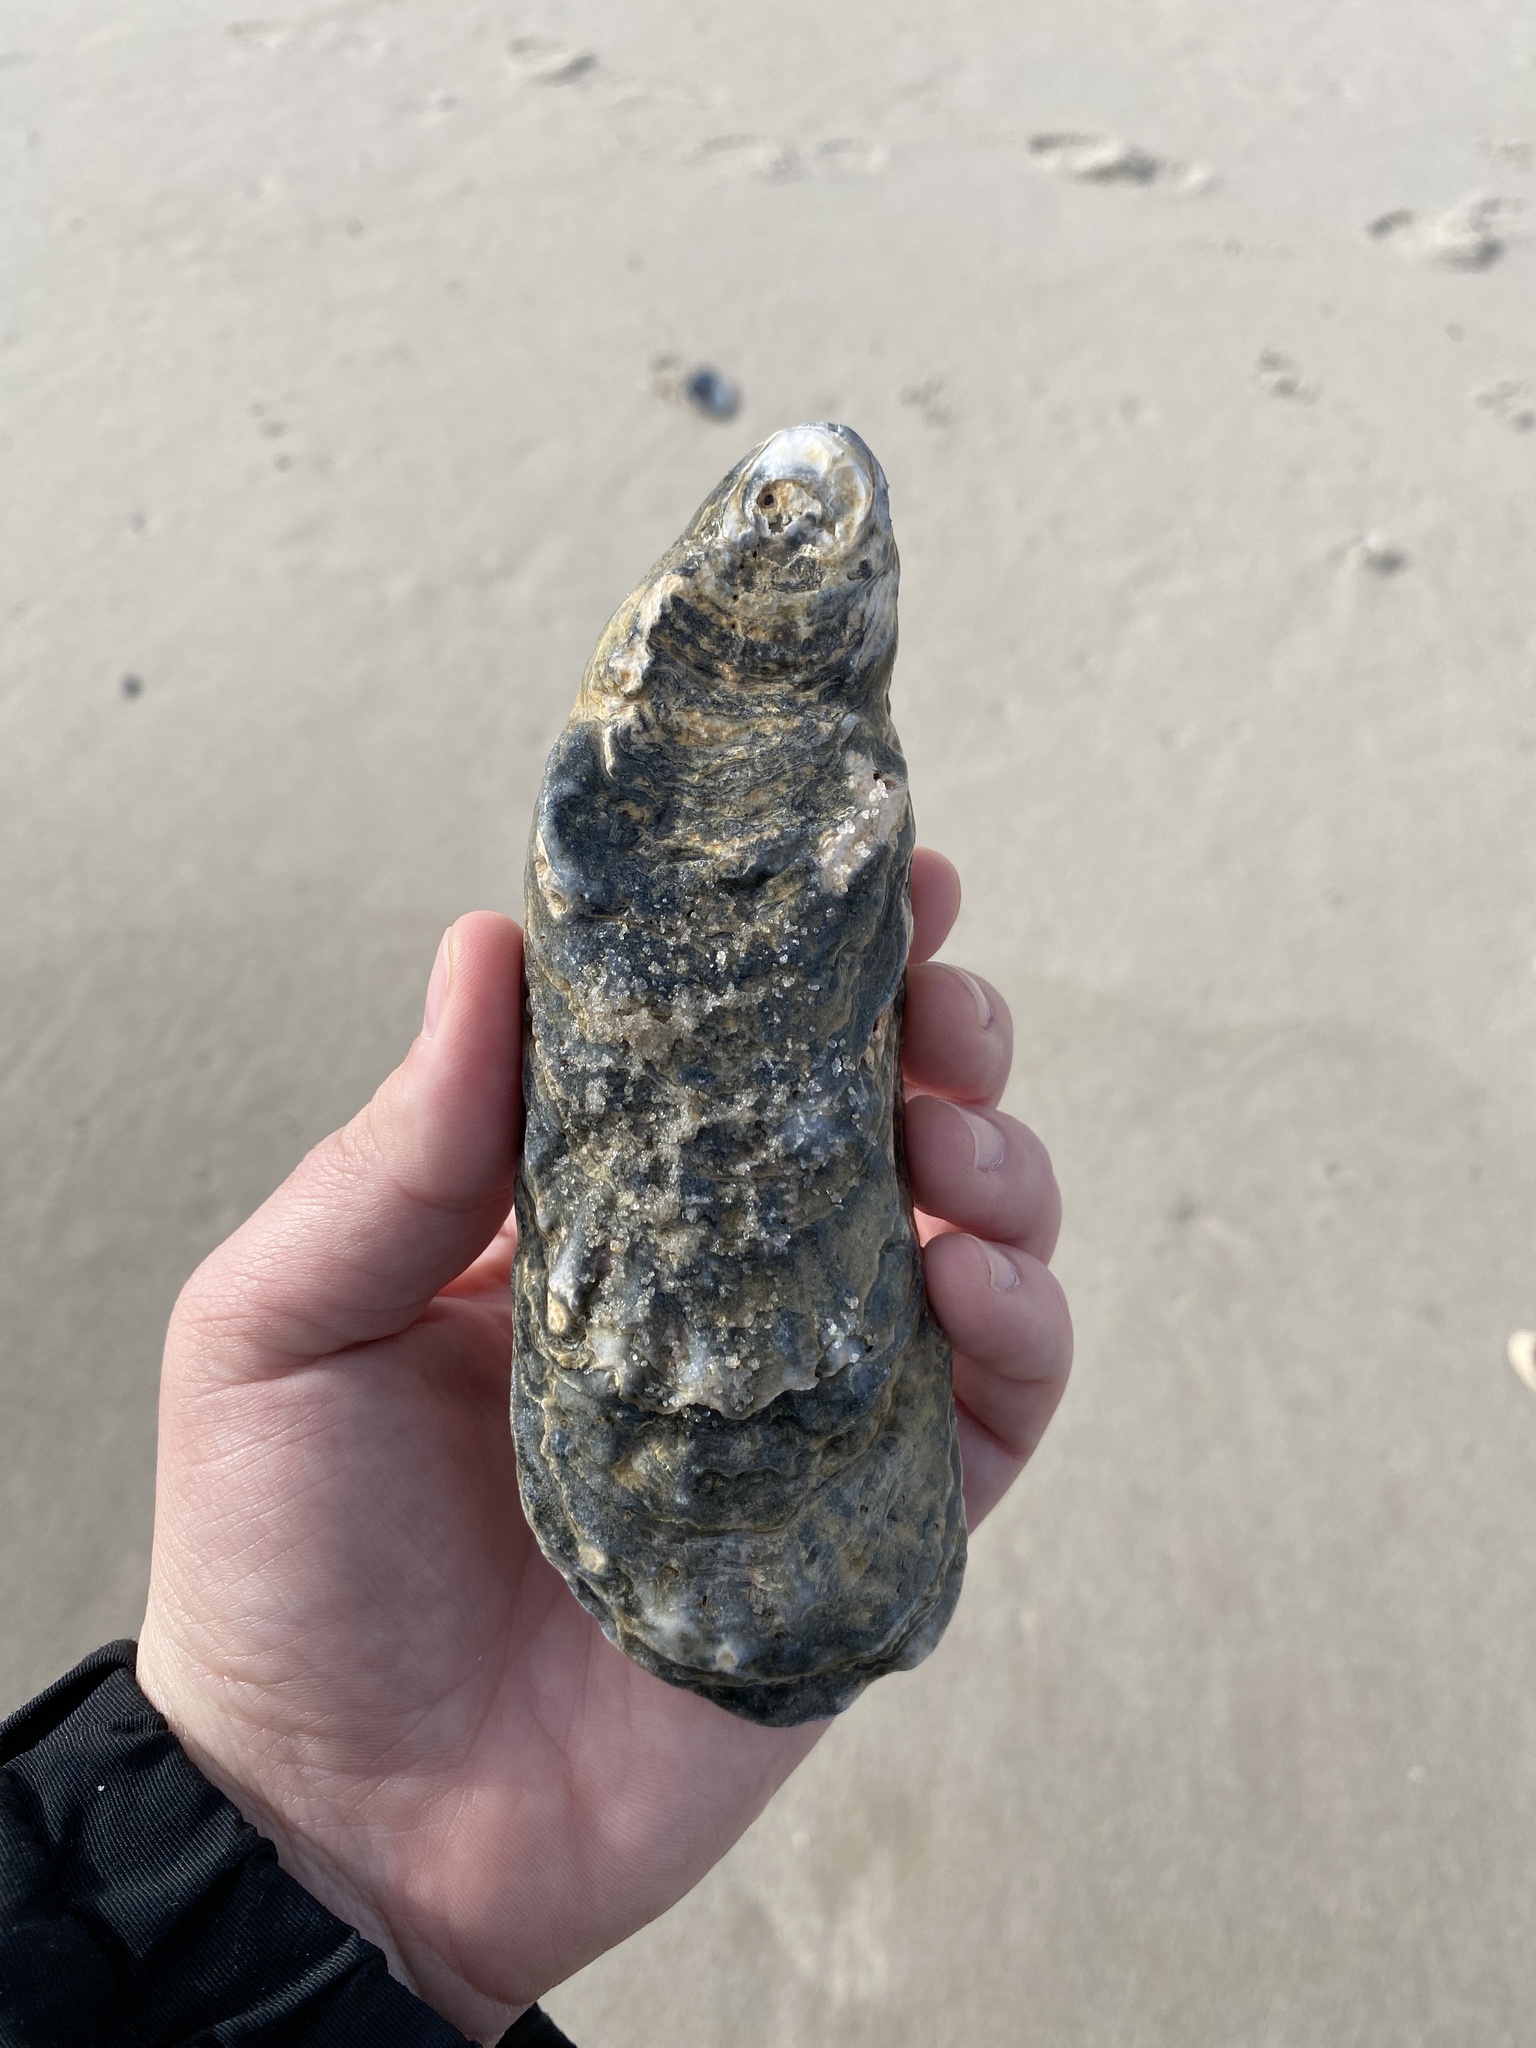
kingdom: Animalia
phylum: Mollusca
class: Bivalvia
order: Ostreida
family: Ostreidae
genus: Crassostrea
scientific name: Crassostrea virginica
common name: American oyster
